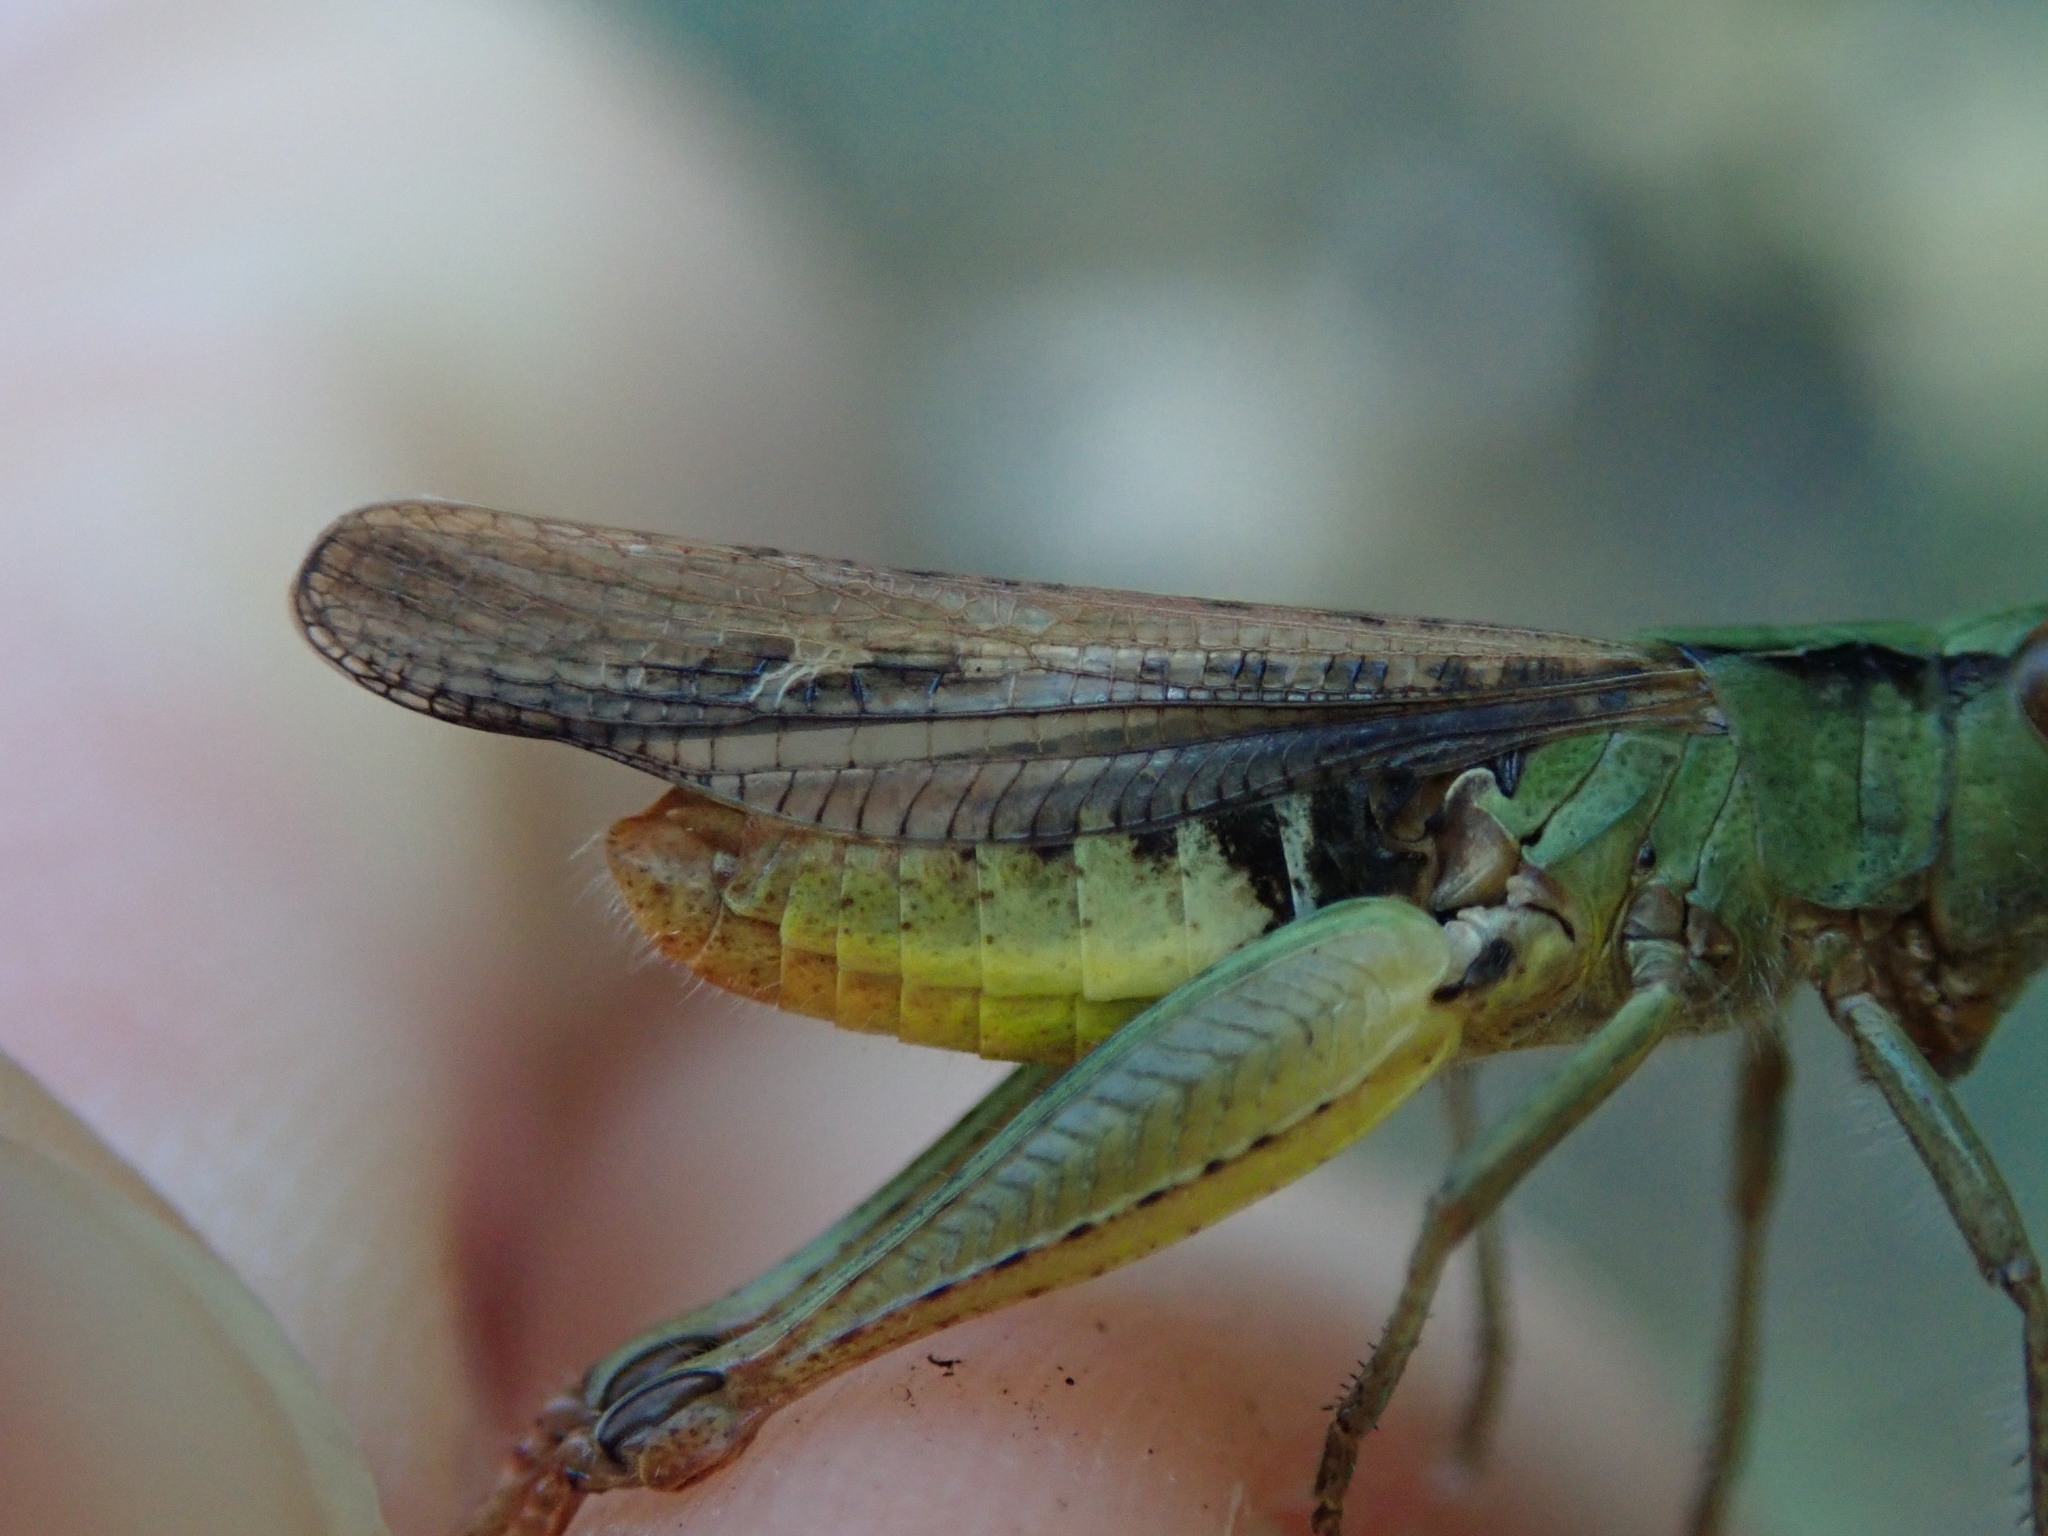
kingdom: Animalia
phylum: Arthropoda
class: Insecta
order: Orthoptera
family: Acrididae
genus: Chorthippus
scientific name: Chorthippus biguttulus
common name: Bow-winged grasshopper
